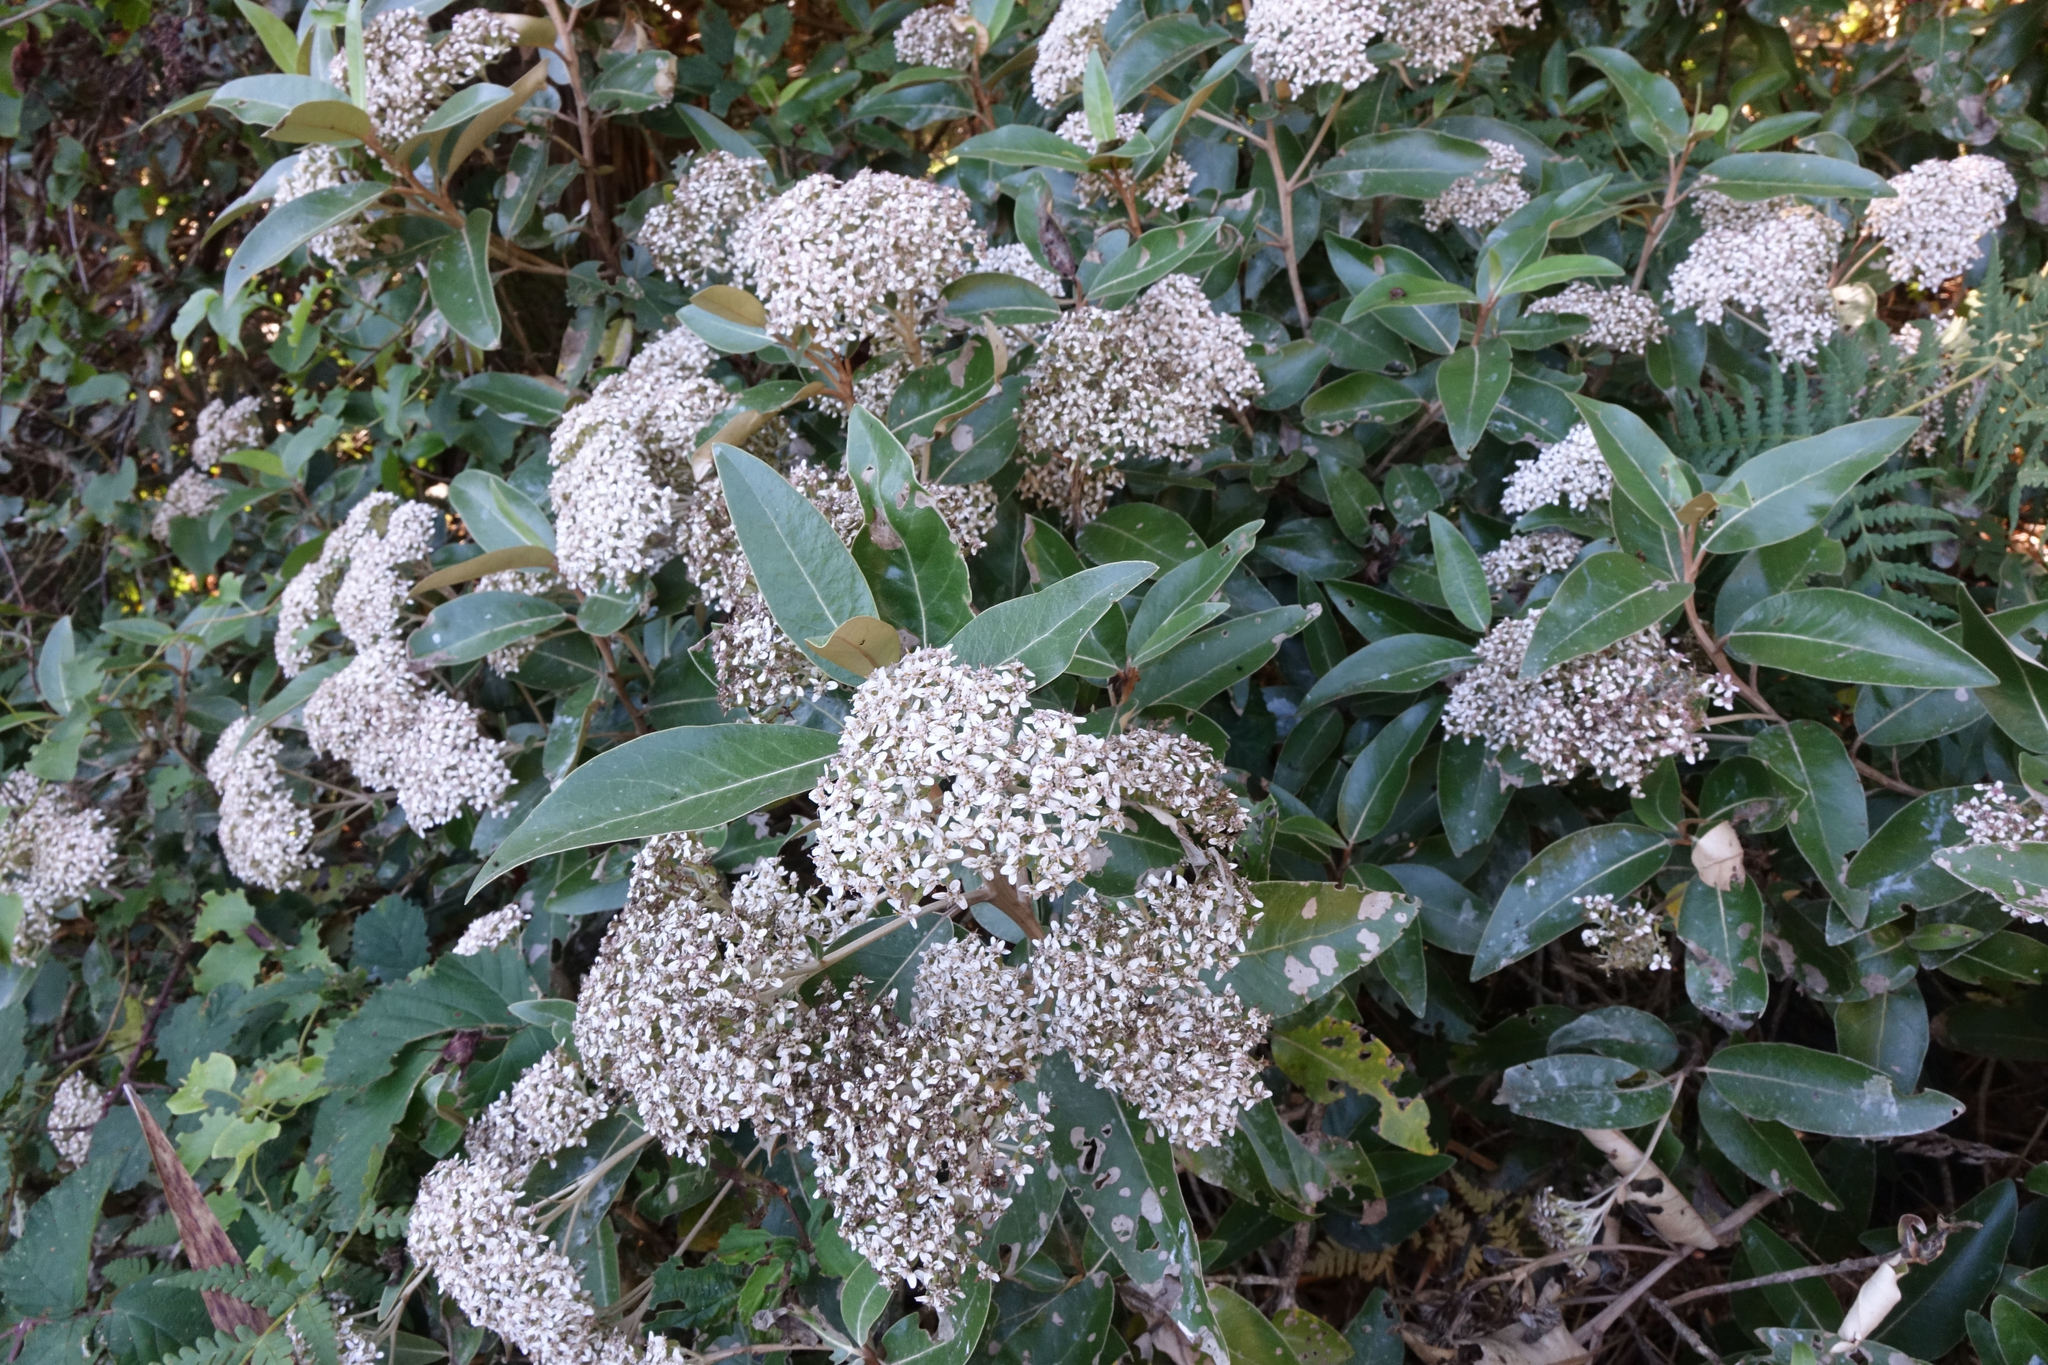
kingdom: Plantae
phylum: Tracheophyta
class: Magnoliopsida
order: Asterales
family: Asteraceae
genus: Olearia
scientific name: Olearia avicenniifolia
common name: Mangrove-leaf daisybush
